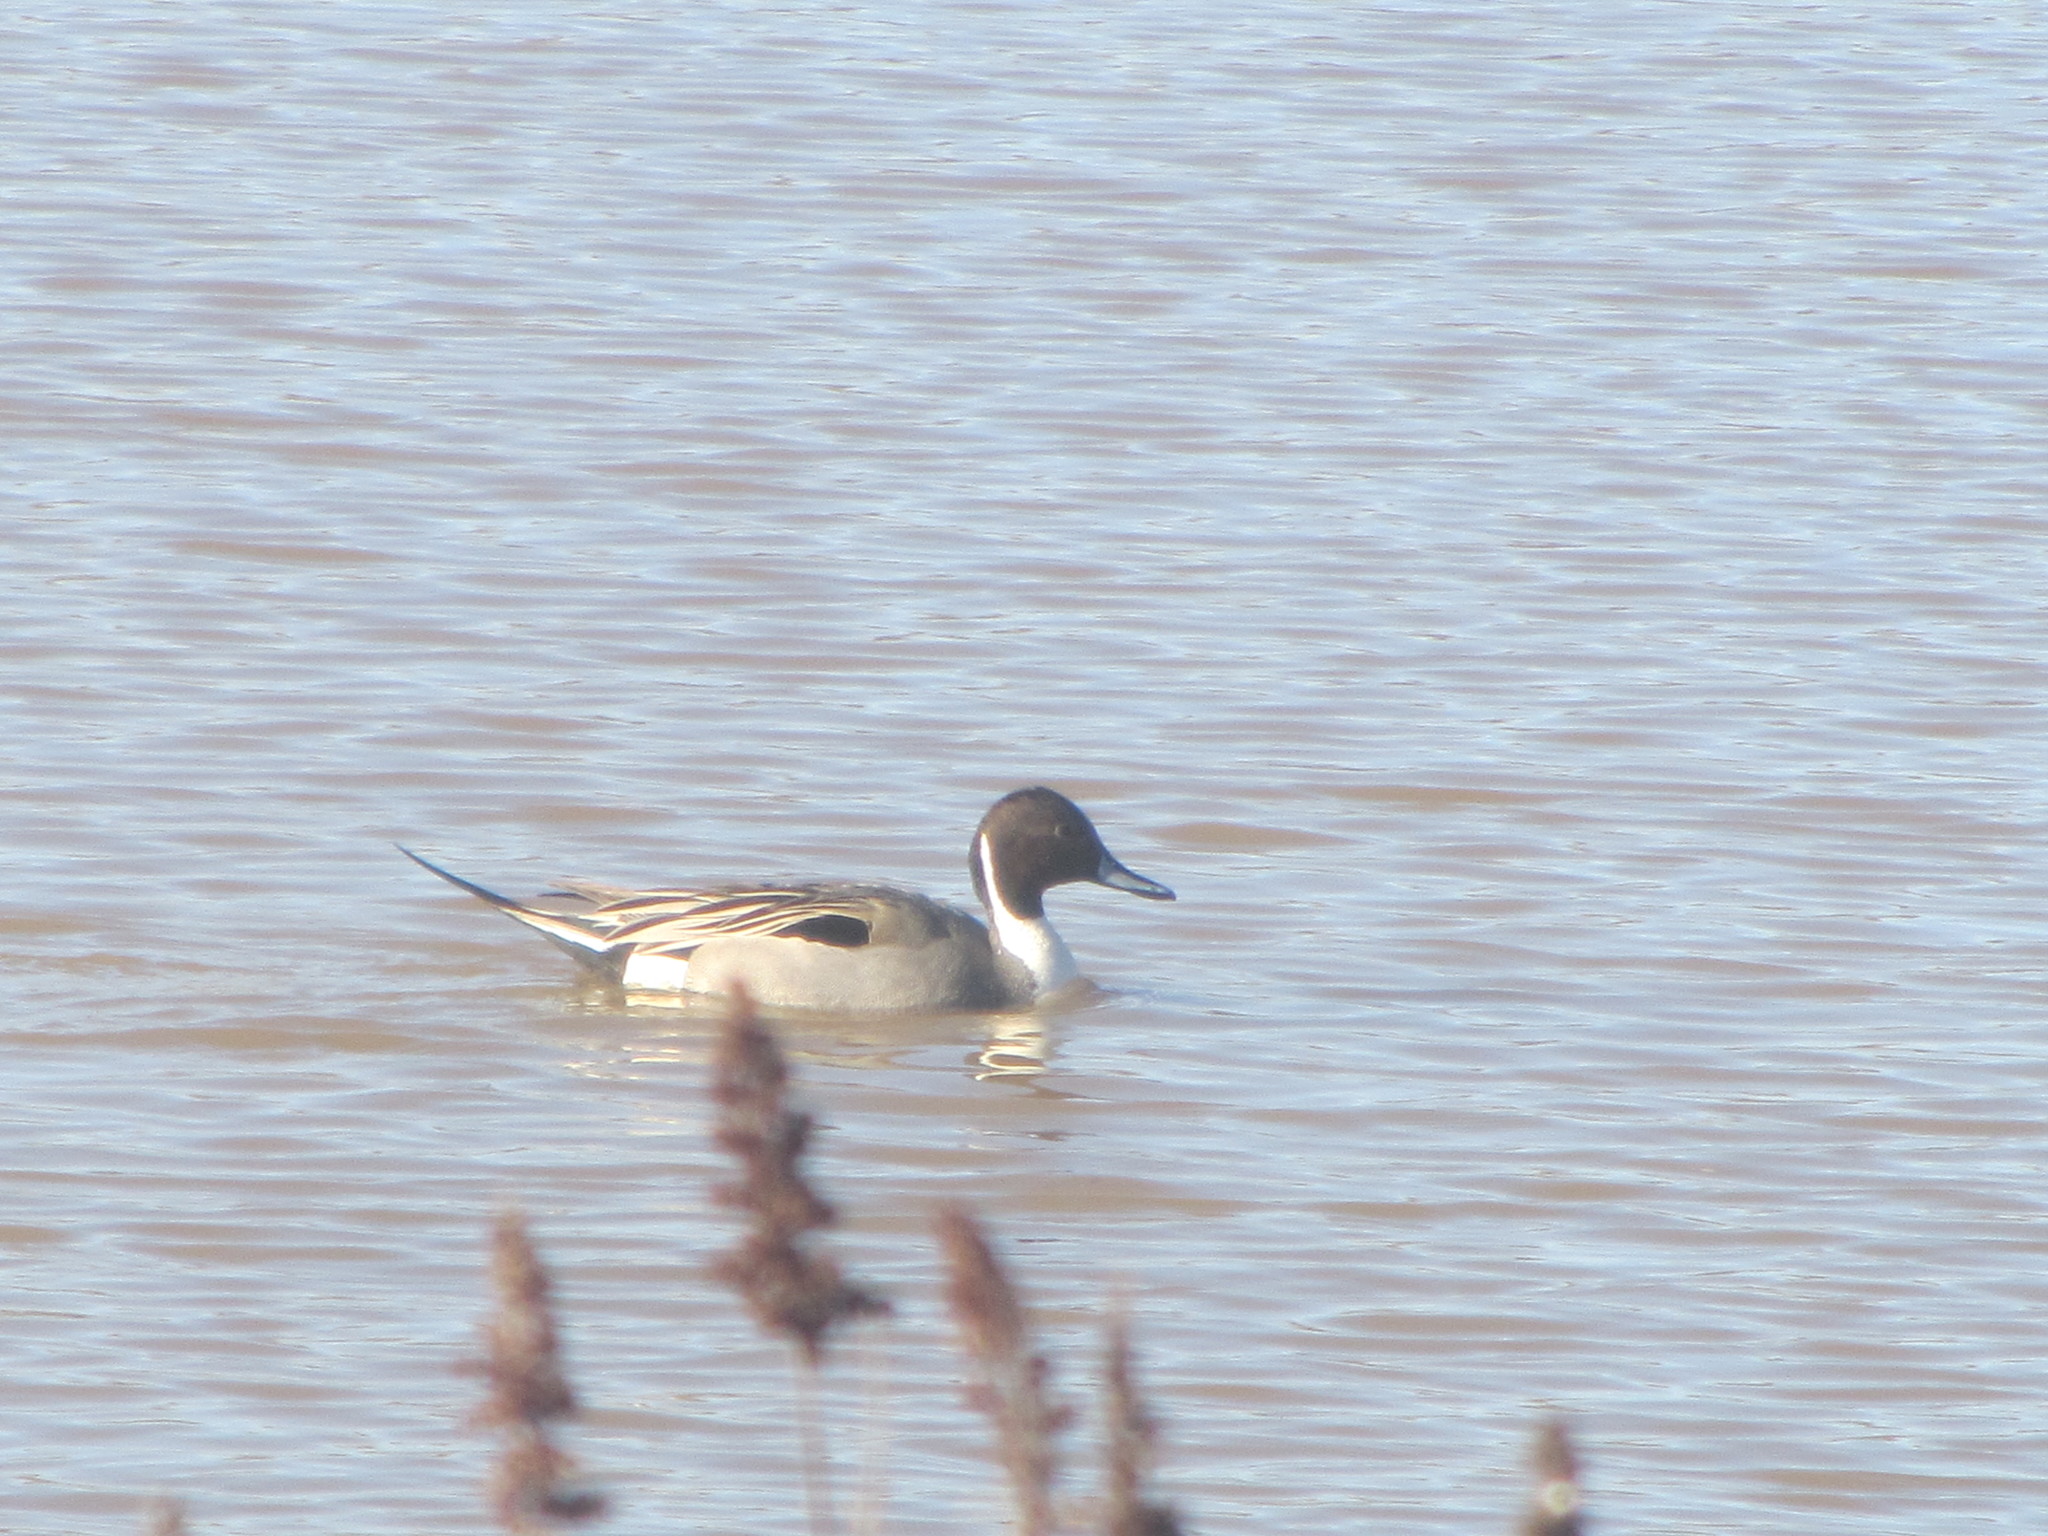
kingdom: Animalia
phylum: Chordata
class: Aves
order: Anseriformes
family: Anatidae
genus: Anas
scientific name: Anas acuta
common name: Northern pintail
